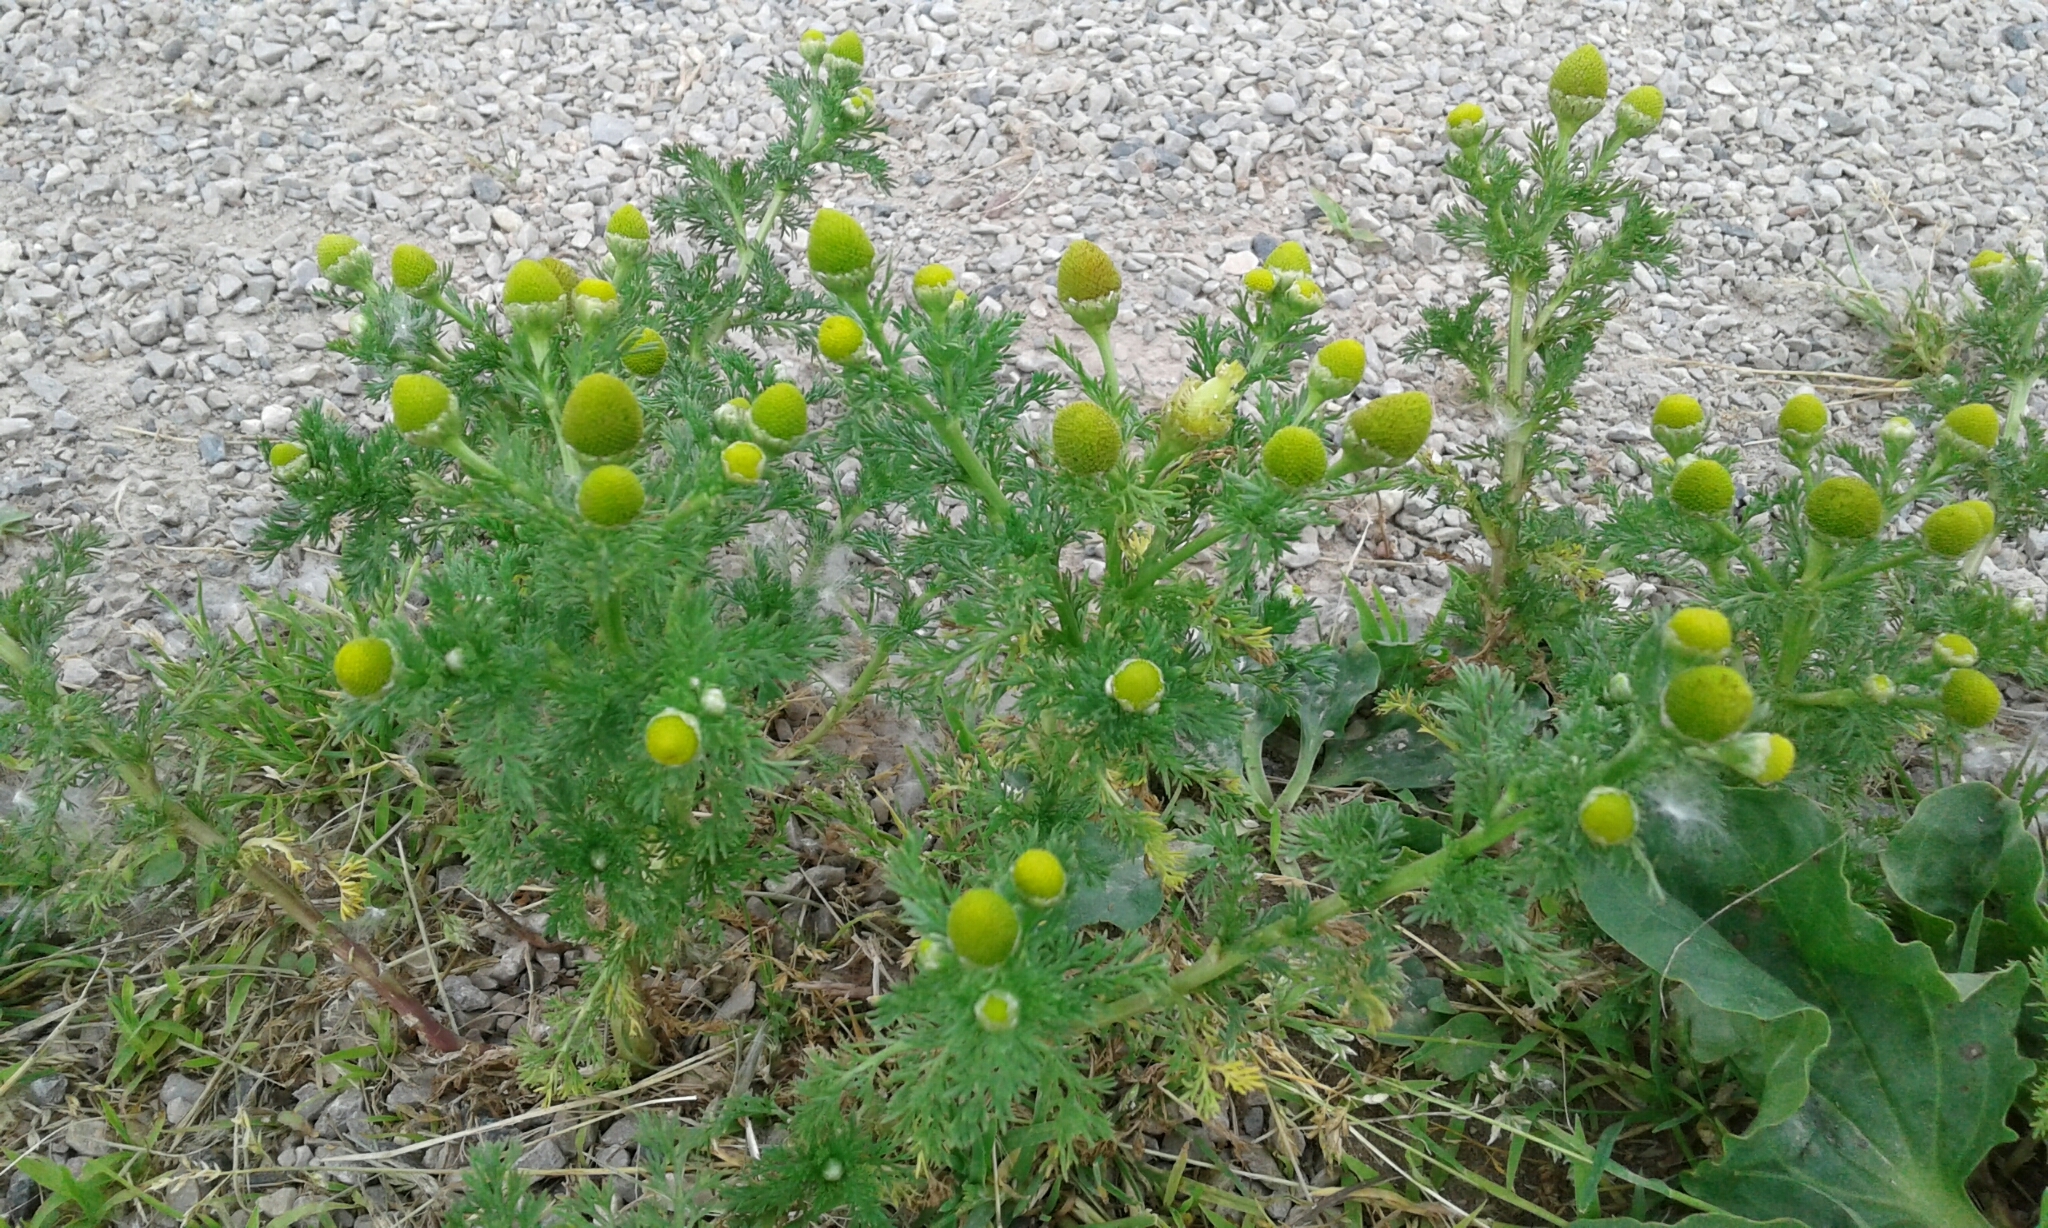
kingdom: Plantae
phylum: Tracheophyta
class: Magnoliopsida
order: Asterales
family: Asteraceae
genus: Matricaria
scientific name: Matricaria discoidea
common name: Disc mayweed
